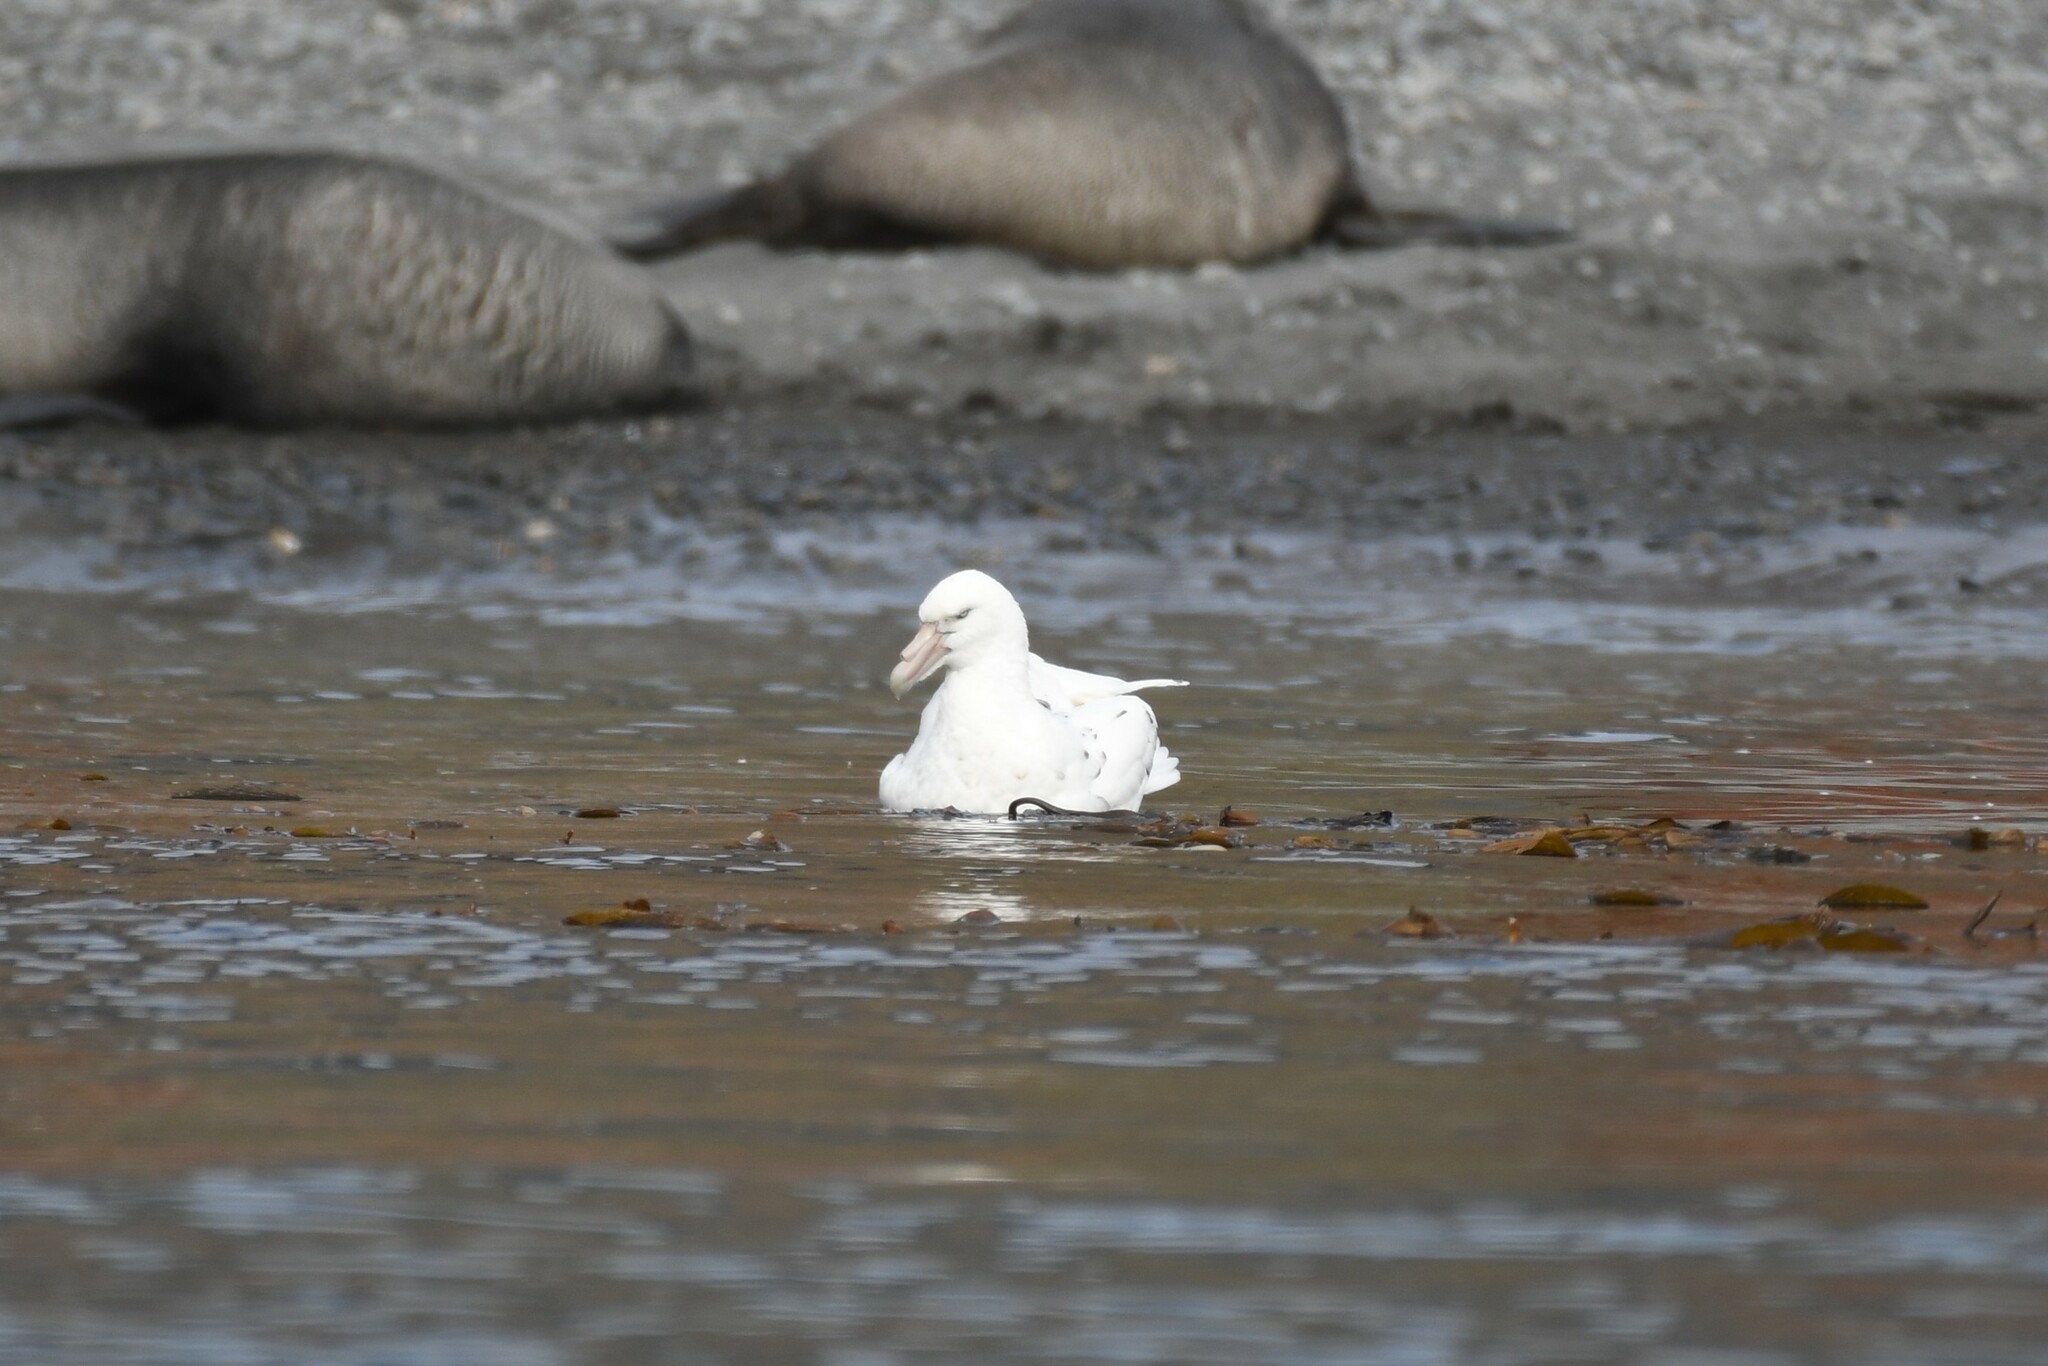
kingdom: Animalia
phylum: Chordata
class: Aves
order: Procellariiformes
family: Procellariidae
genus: Macronectes
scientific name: Macronectes giganteus
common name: Southern giant petrel
